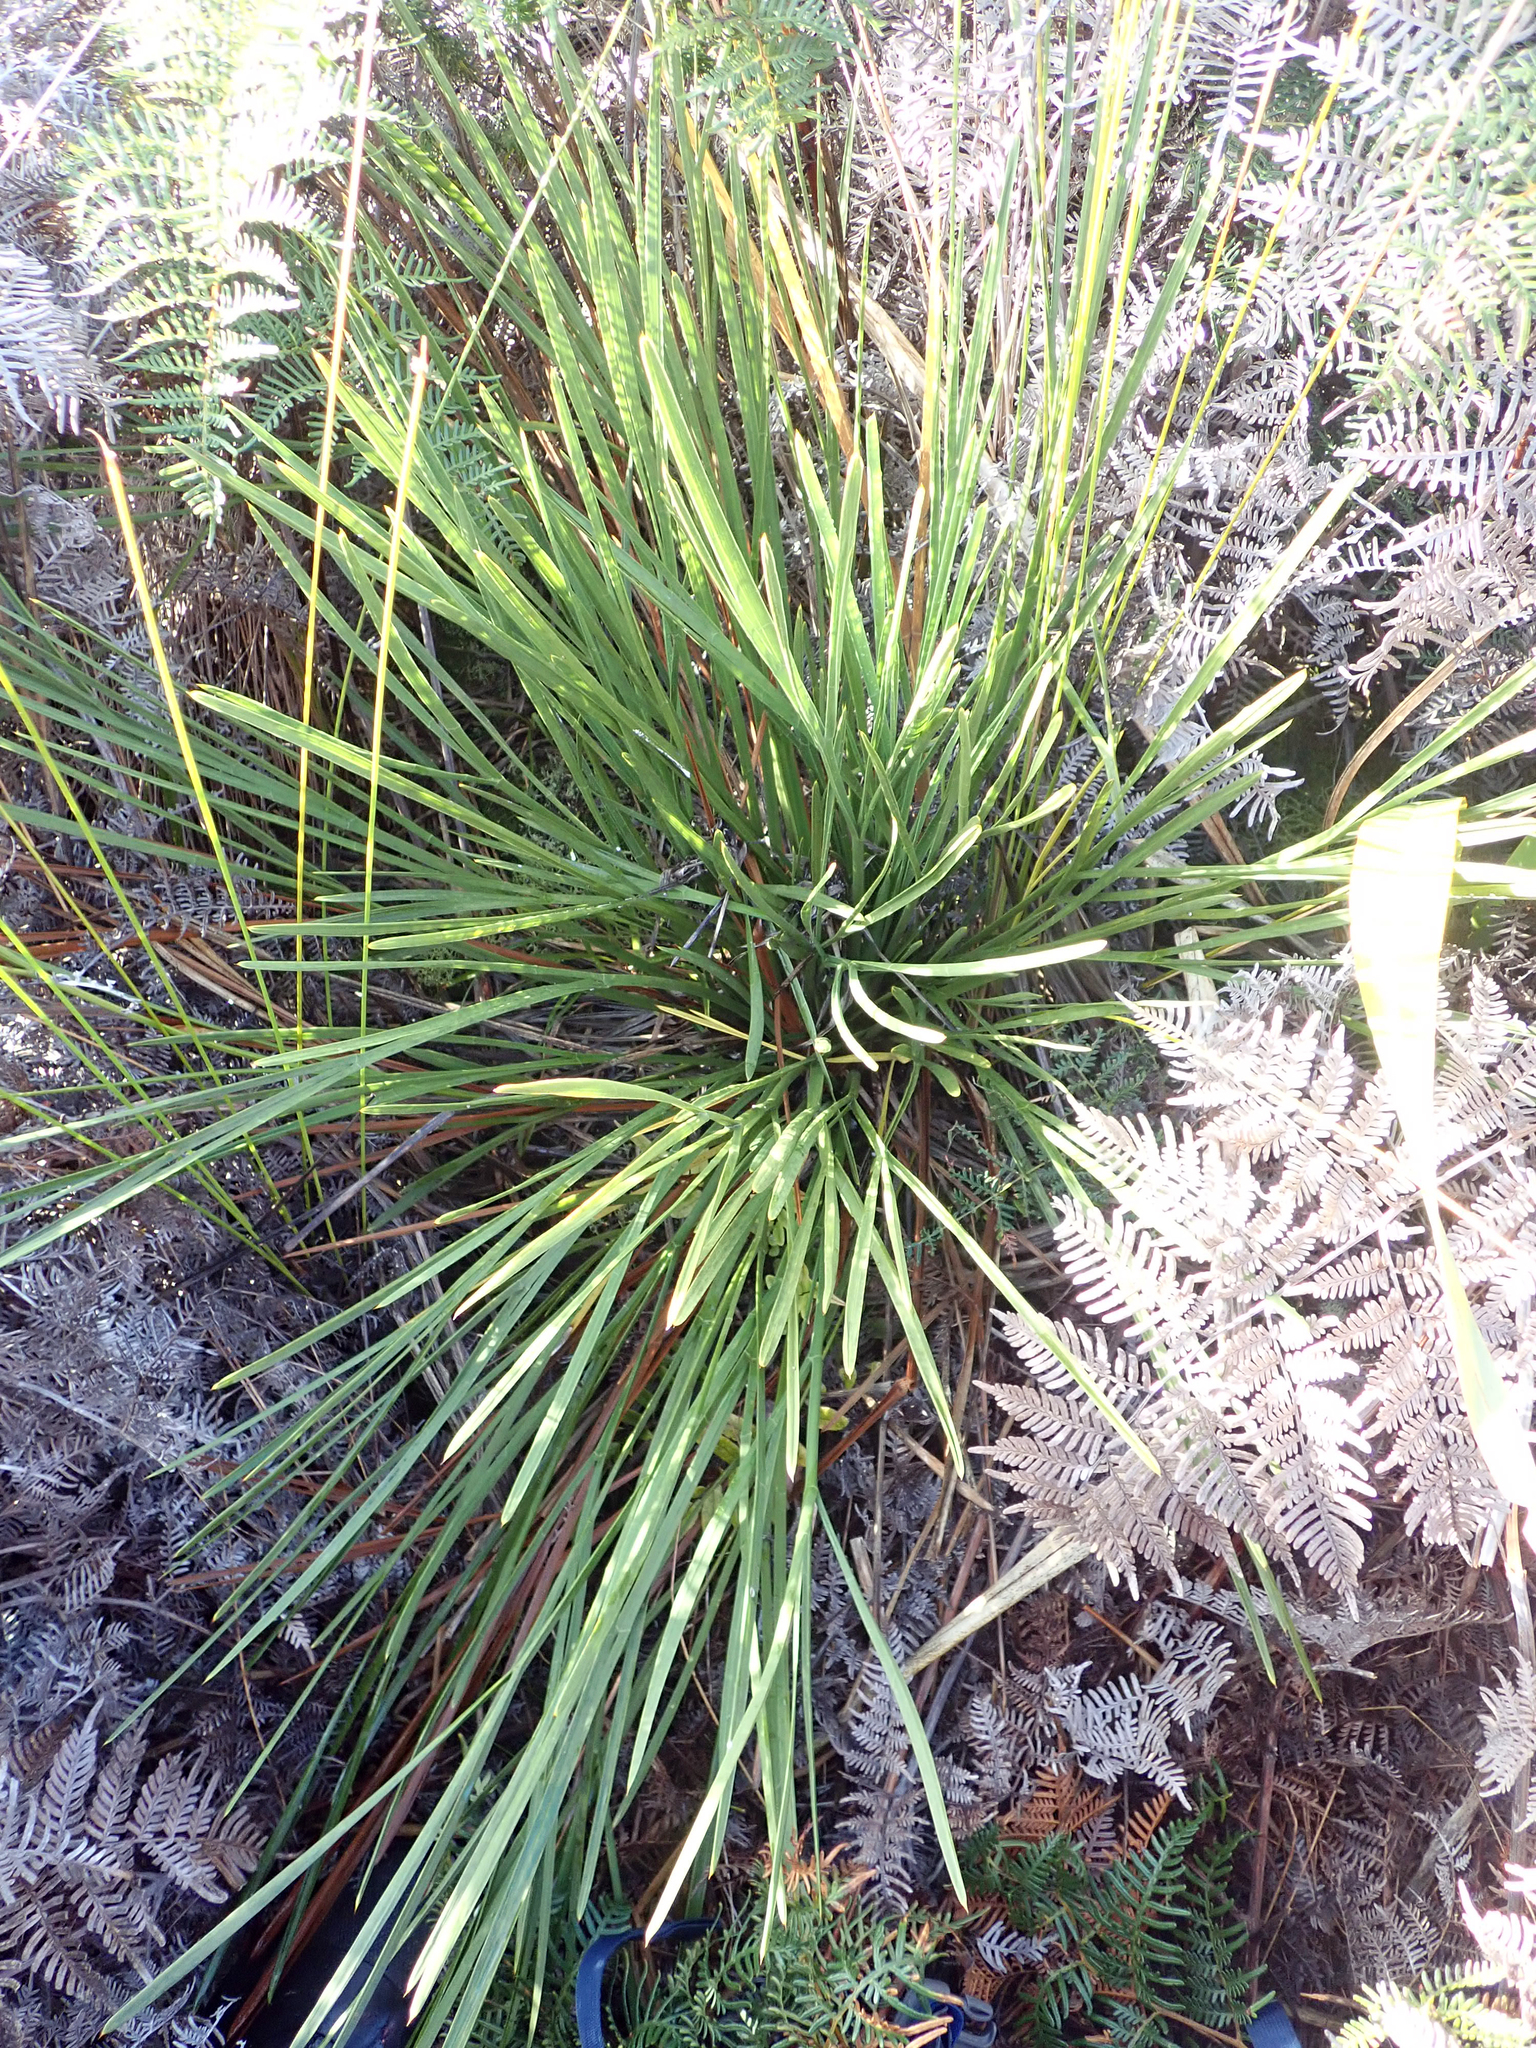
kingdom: Plantae
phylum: Tracheophyta
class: Magnoliopsida
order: Apiales
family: Apiaceae
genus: Aciphylla
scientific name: Aciphylla traversii
